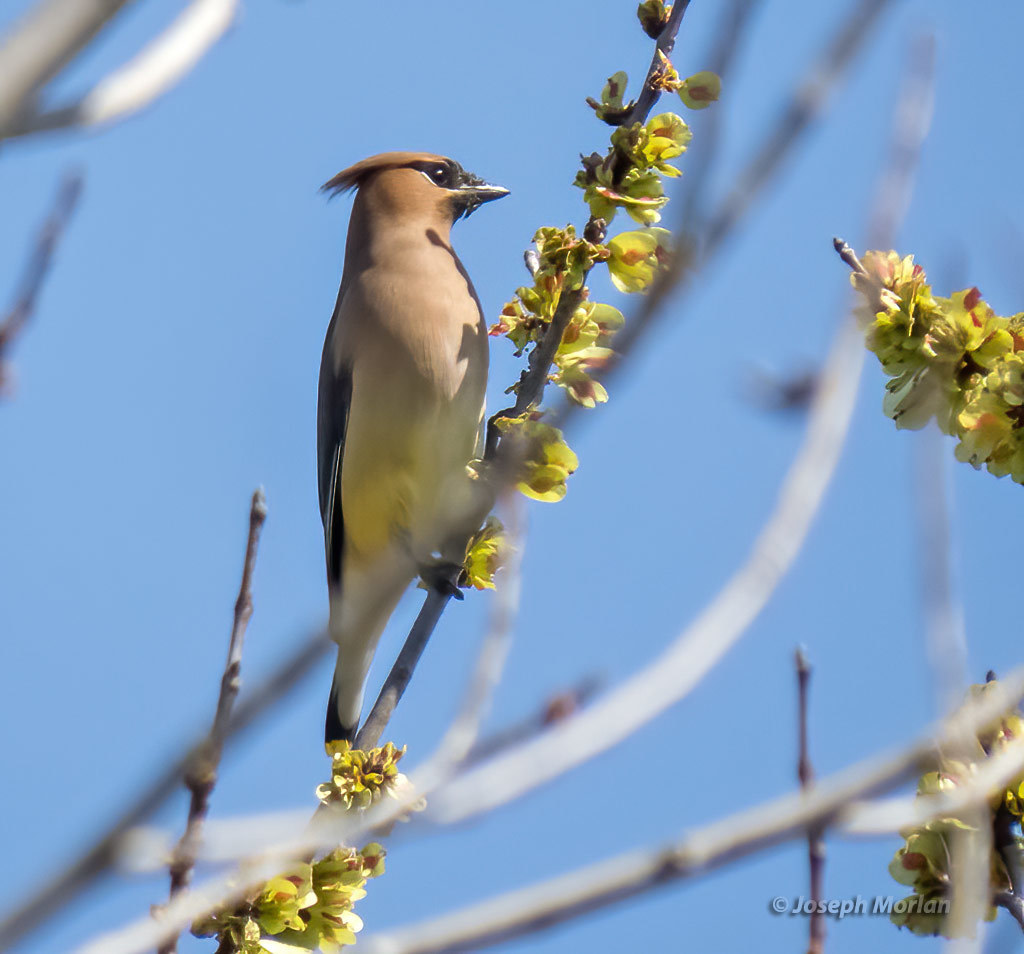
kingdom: Animalia
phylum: Chordata
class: Aves
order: Passeriformes
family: Bombycillidae
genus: Bombycilla
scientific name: Bombycilla cedrorum
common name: Cedar waxwing
